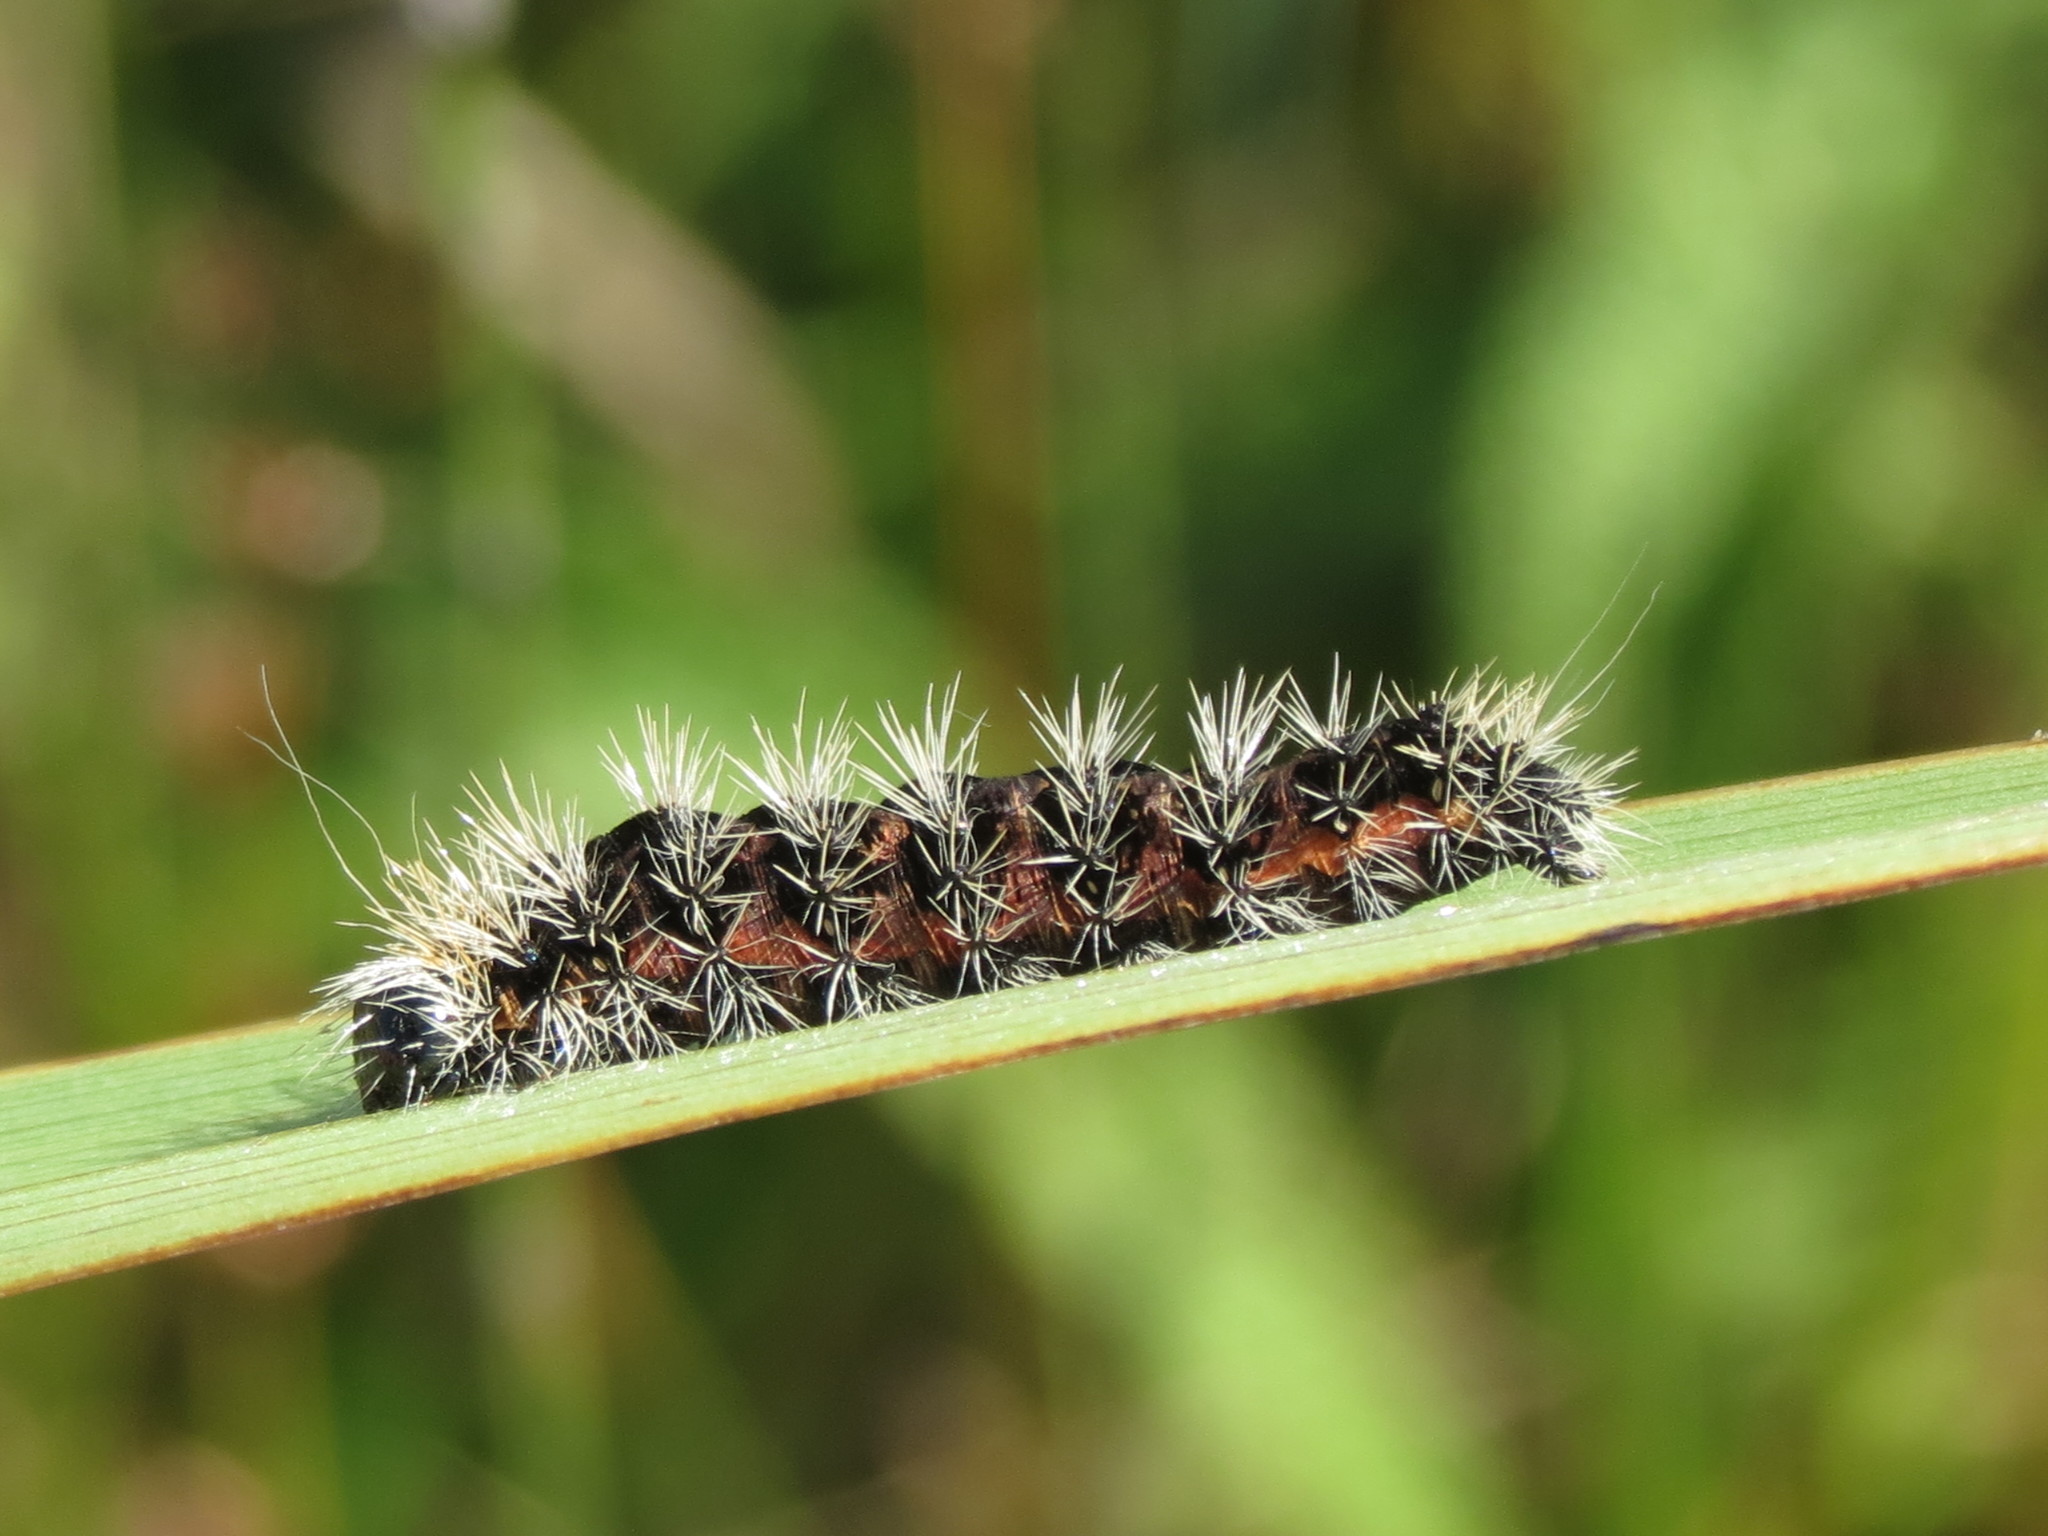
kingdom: Animalia
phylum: Arthropoda
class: Insecta
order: Lepidoptera
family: Noctuidae
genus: Acronicta
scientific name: Acronicta oblinita
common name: Smeared dagger
